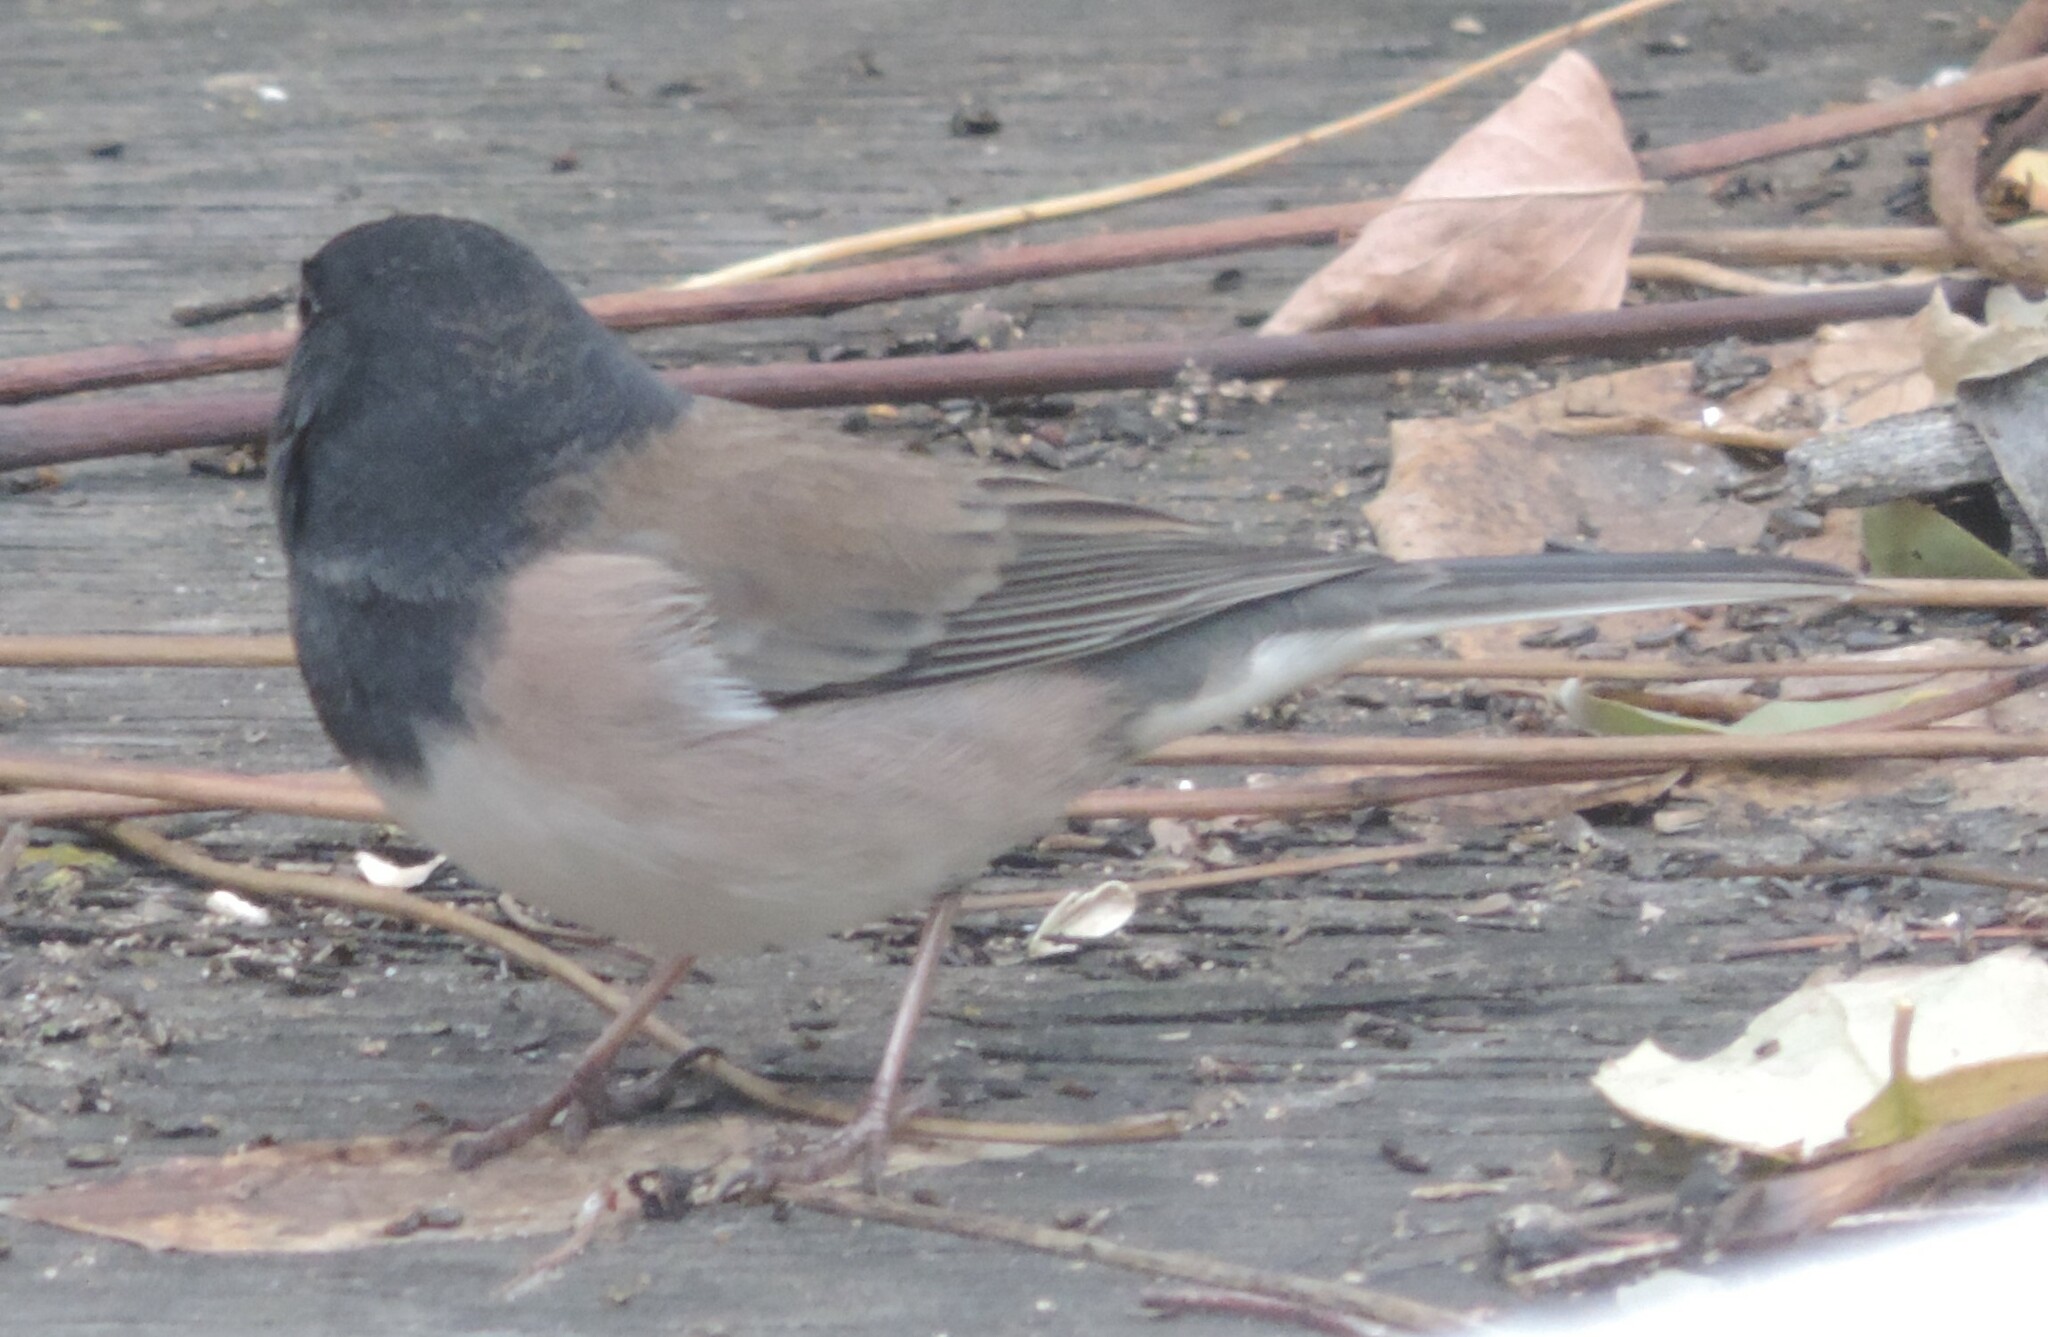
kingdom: Animalia
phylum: Chordata
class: Aves
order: Passeriformes
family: Passerellidae
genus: Junco
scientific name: Junco hyemalis
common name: Dark-eyed junco
